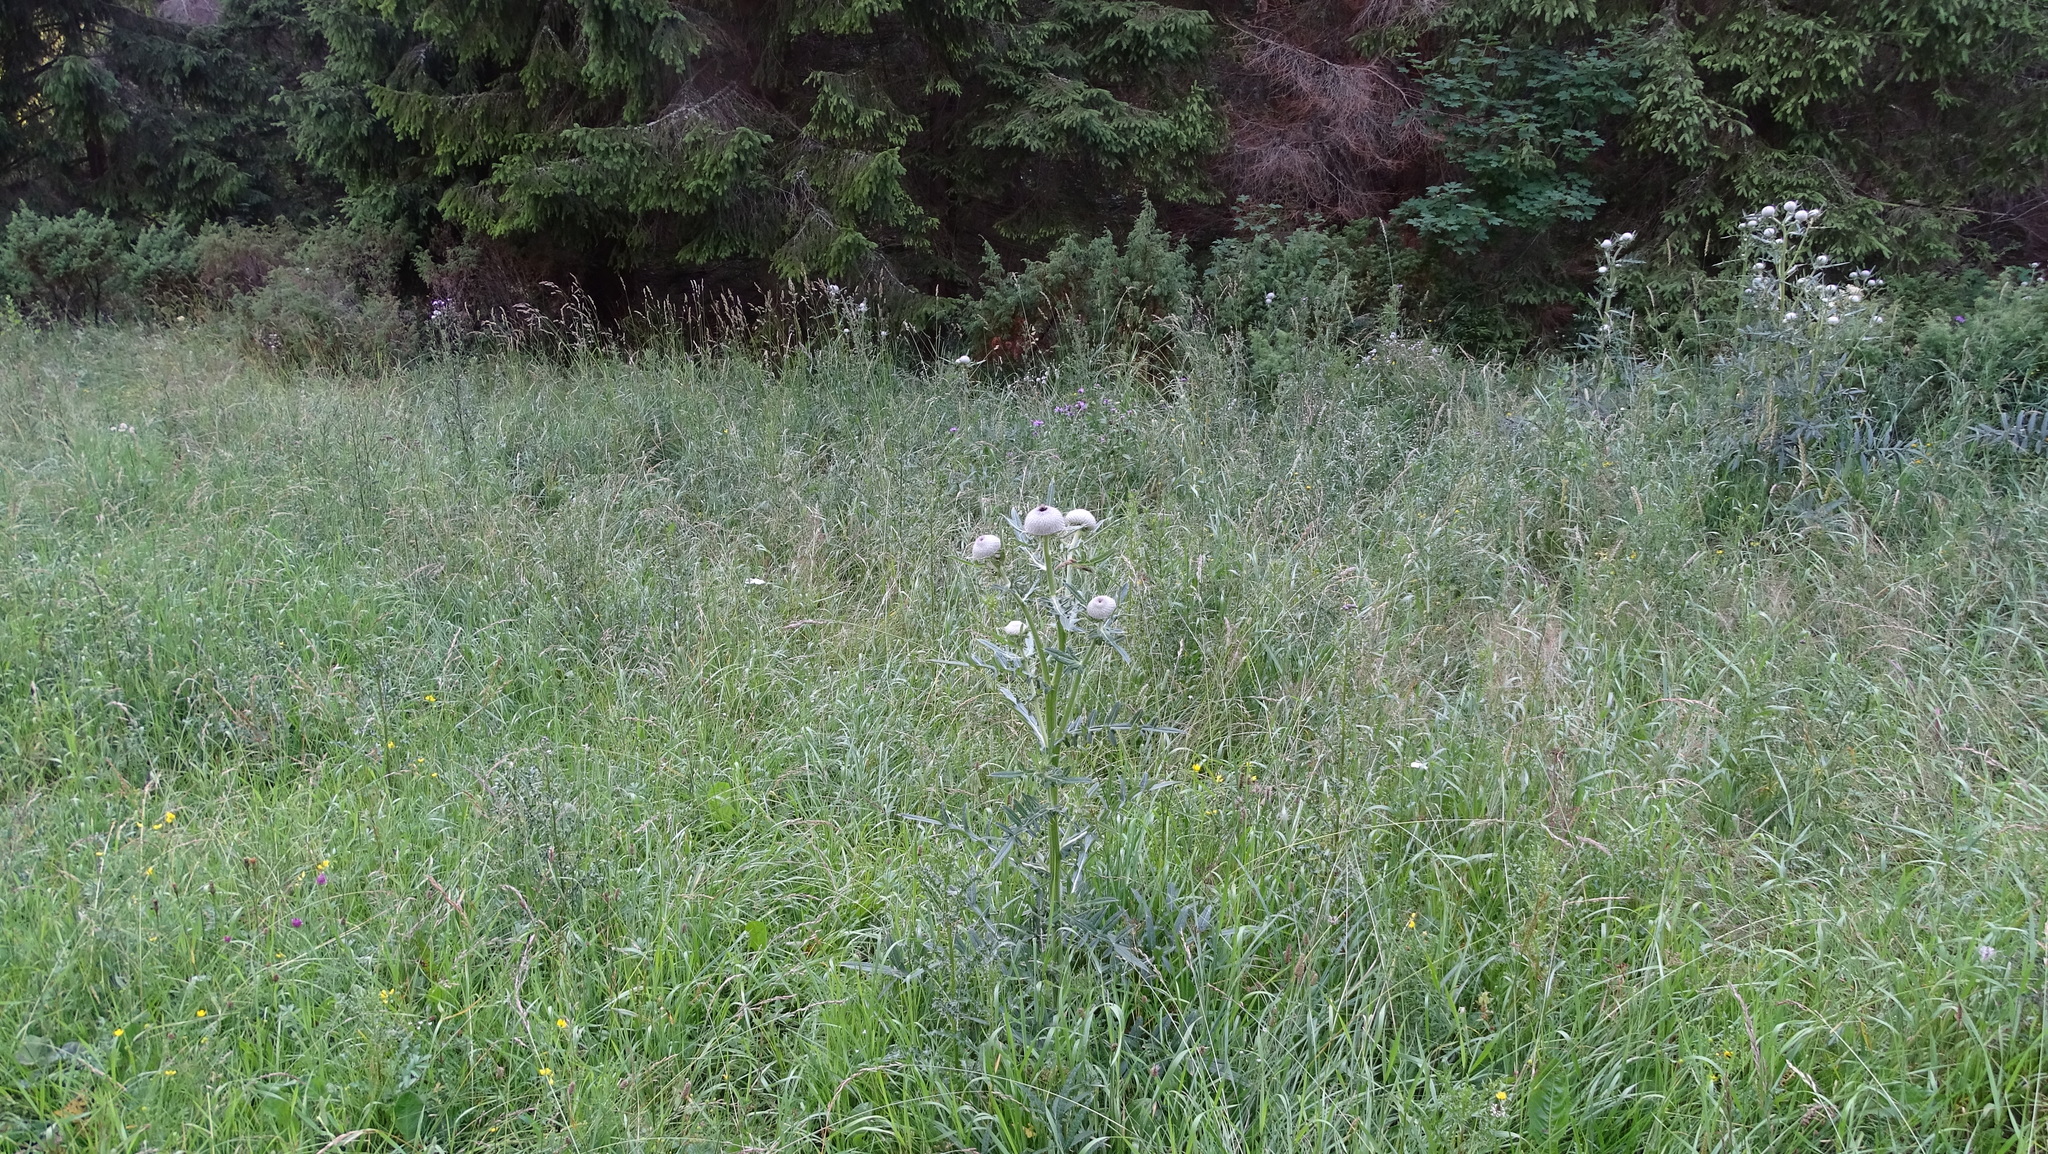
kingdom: Plantae
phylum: Tracheophyta
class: Magnoliopsida
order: Asterales
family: Asteraceae
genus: Lophiolepis
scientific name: Lophiolepis eriophora
